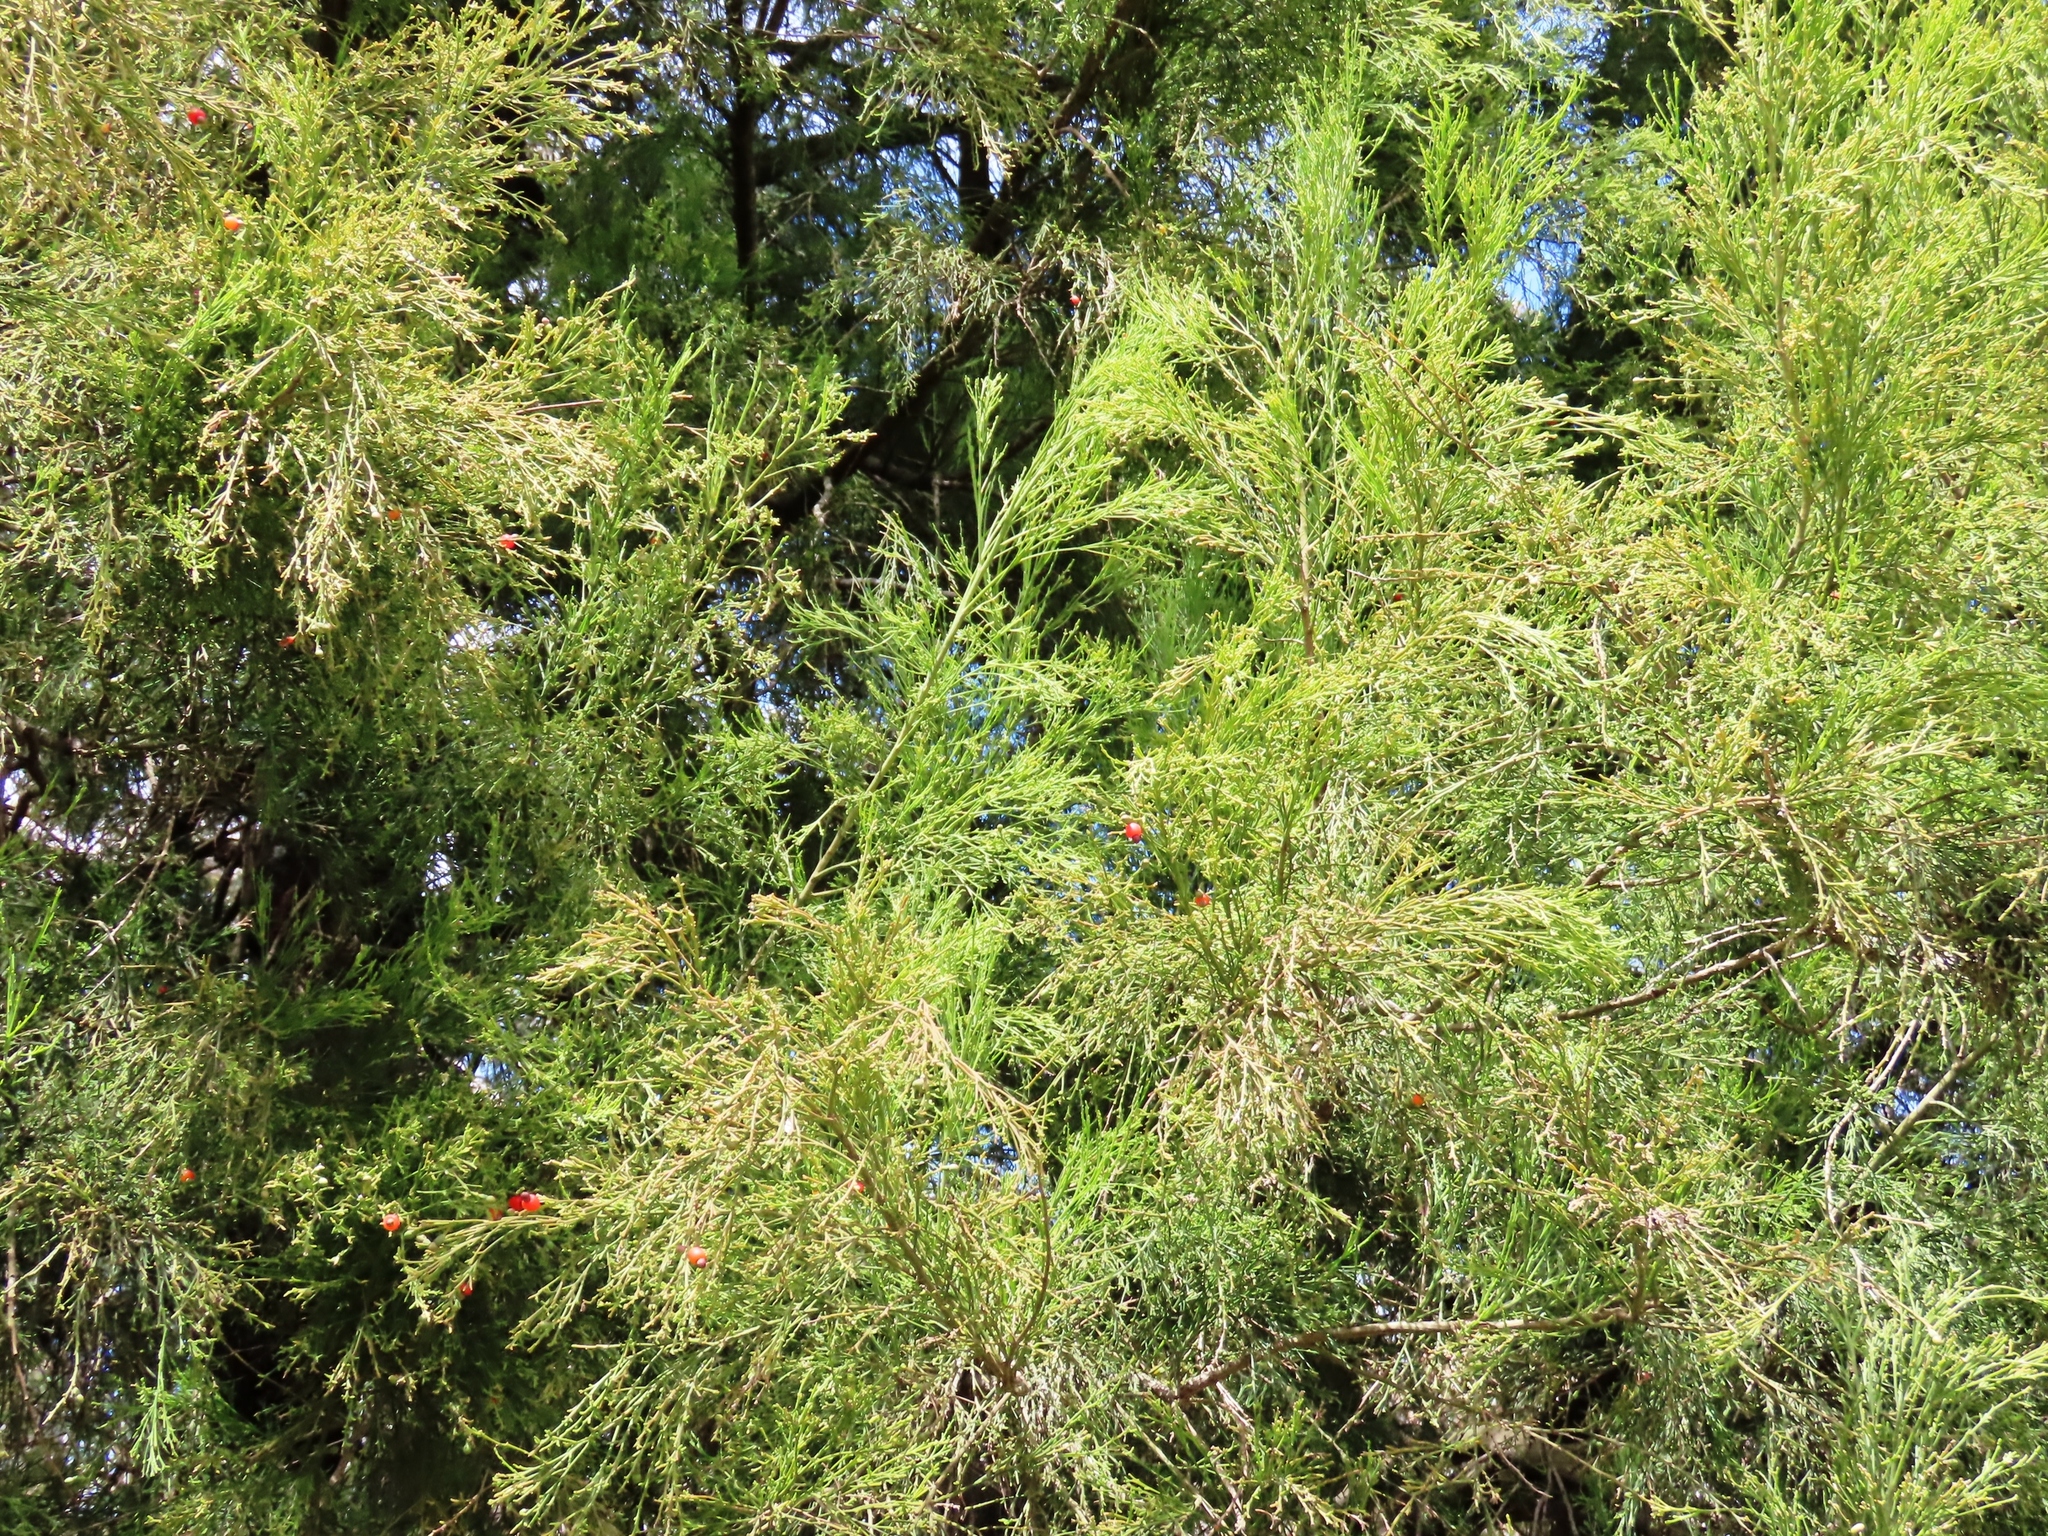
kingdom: Plantae
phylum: Tracheophyta
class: Magnoliopsida
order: Santalales
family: Santalaceae
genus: Exocarpos
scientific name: Exocarpos cupressiformis
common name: Cherry ballart
